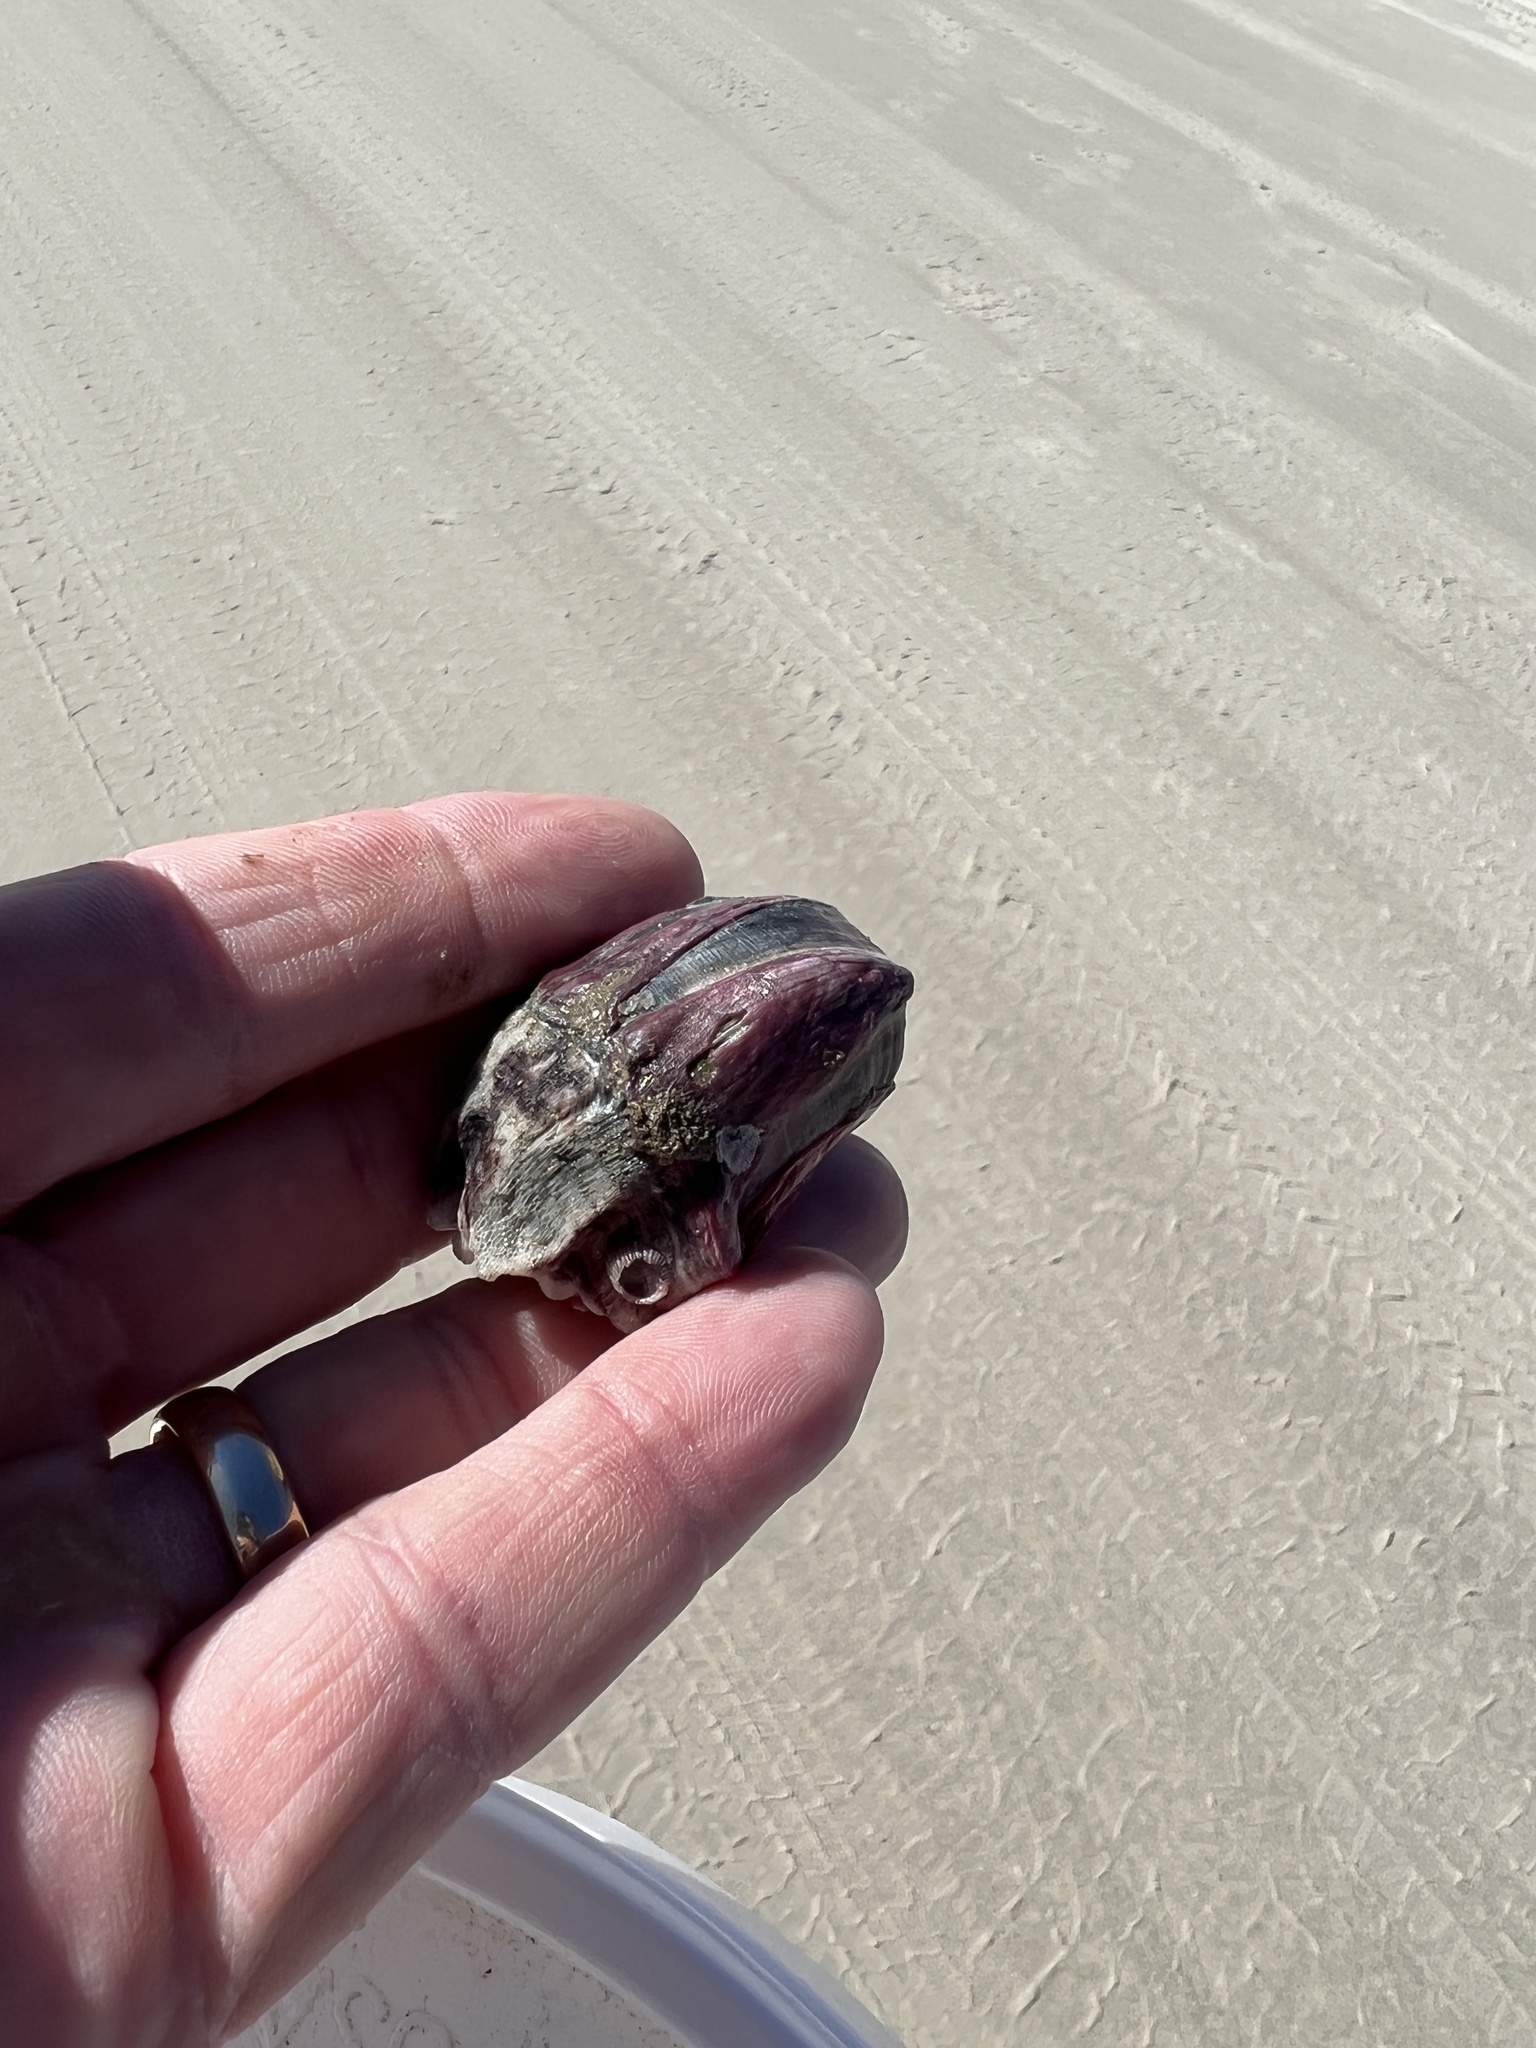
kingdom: Animalia
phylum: Arthropoda
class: Maxillopoda
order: Sessilia
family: Balanidae
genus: Megabalanus
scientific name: Megabalanus tintinnabulum
